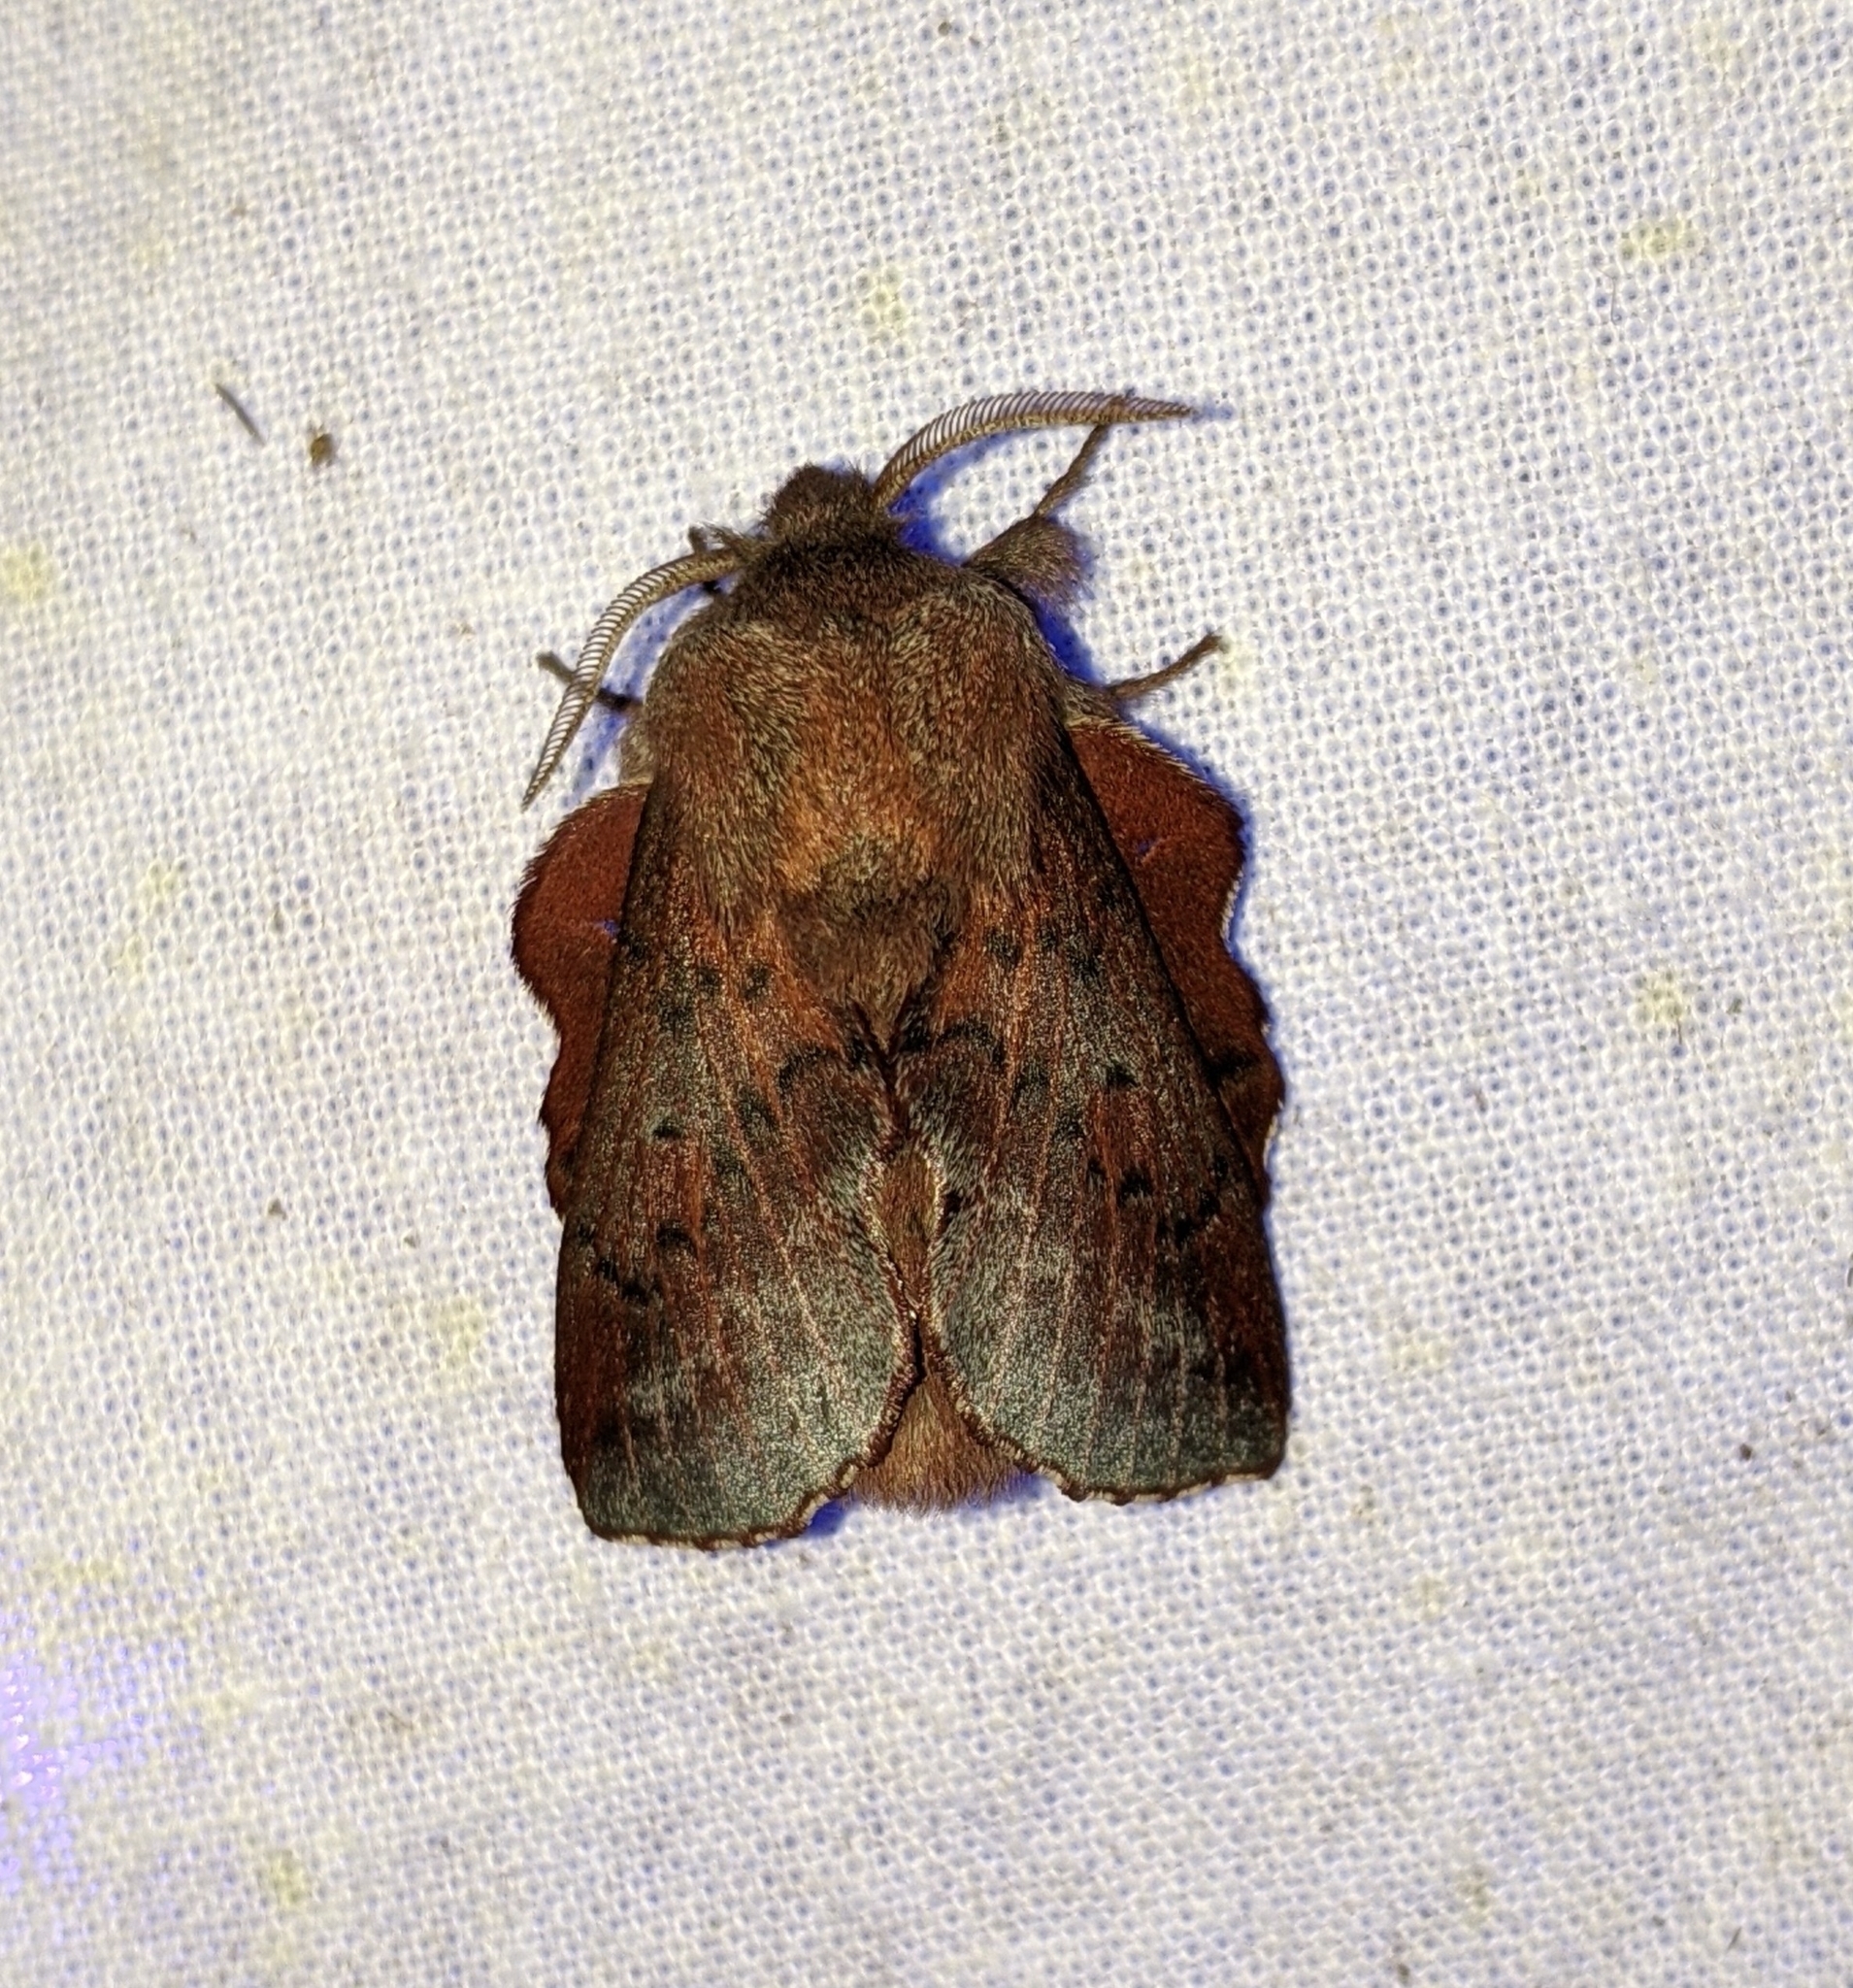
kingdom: Animalia
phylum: Arthropoda
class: Insecta
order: Lepidoptera
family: Lasiocampidae
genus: Phyllodesma
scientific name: Phyllodesma americana
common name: American lappet moth
